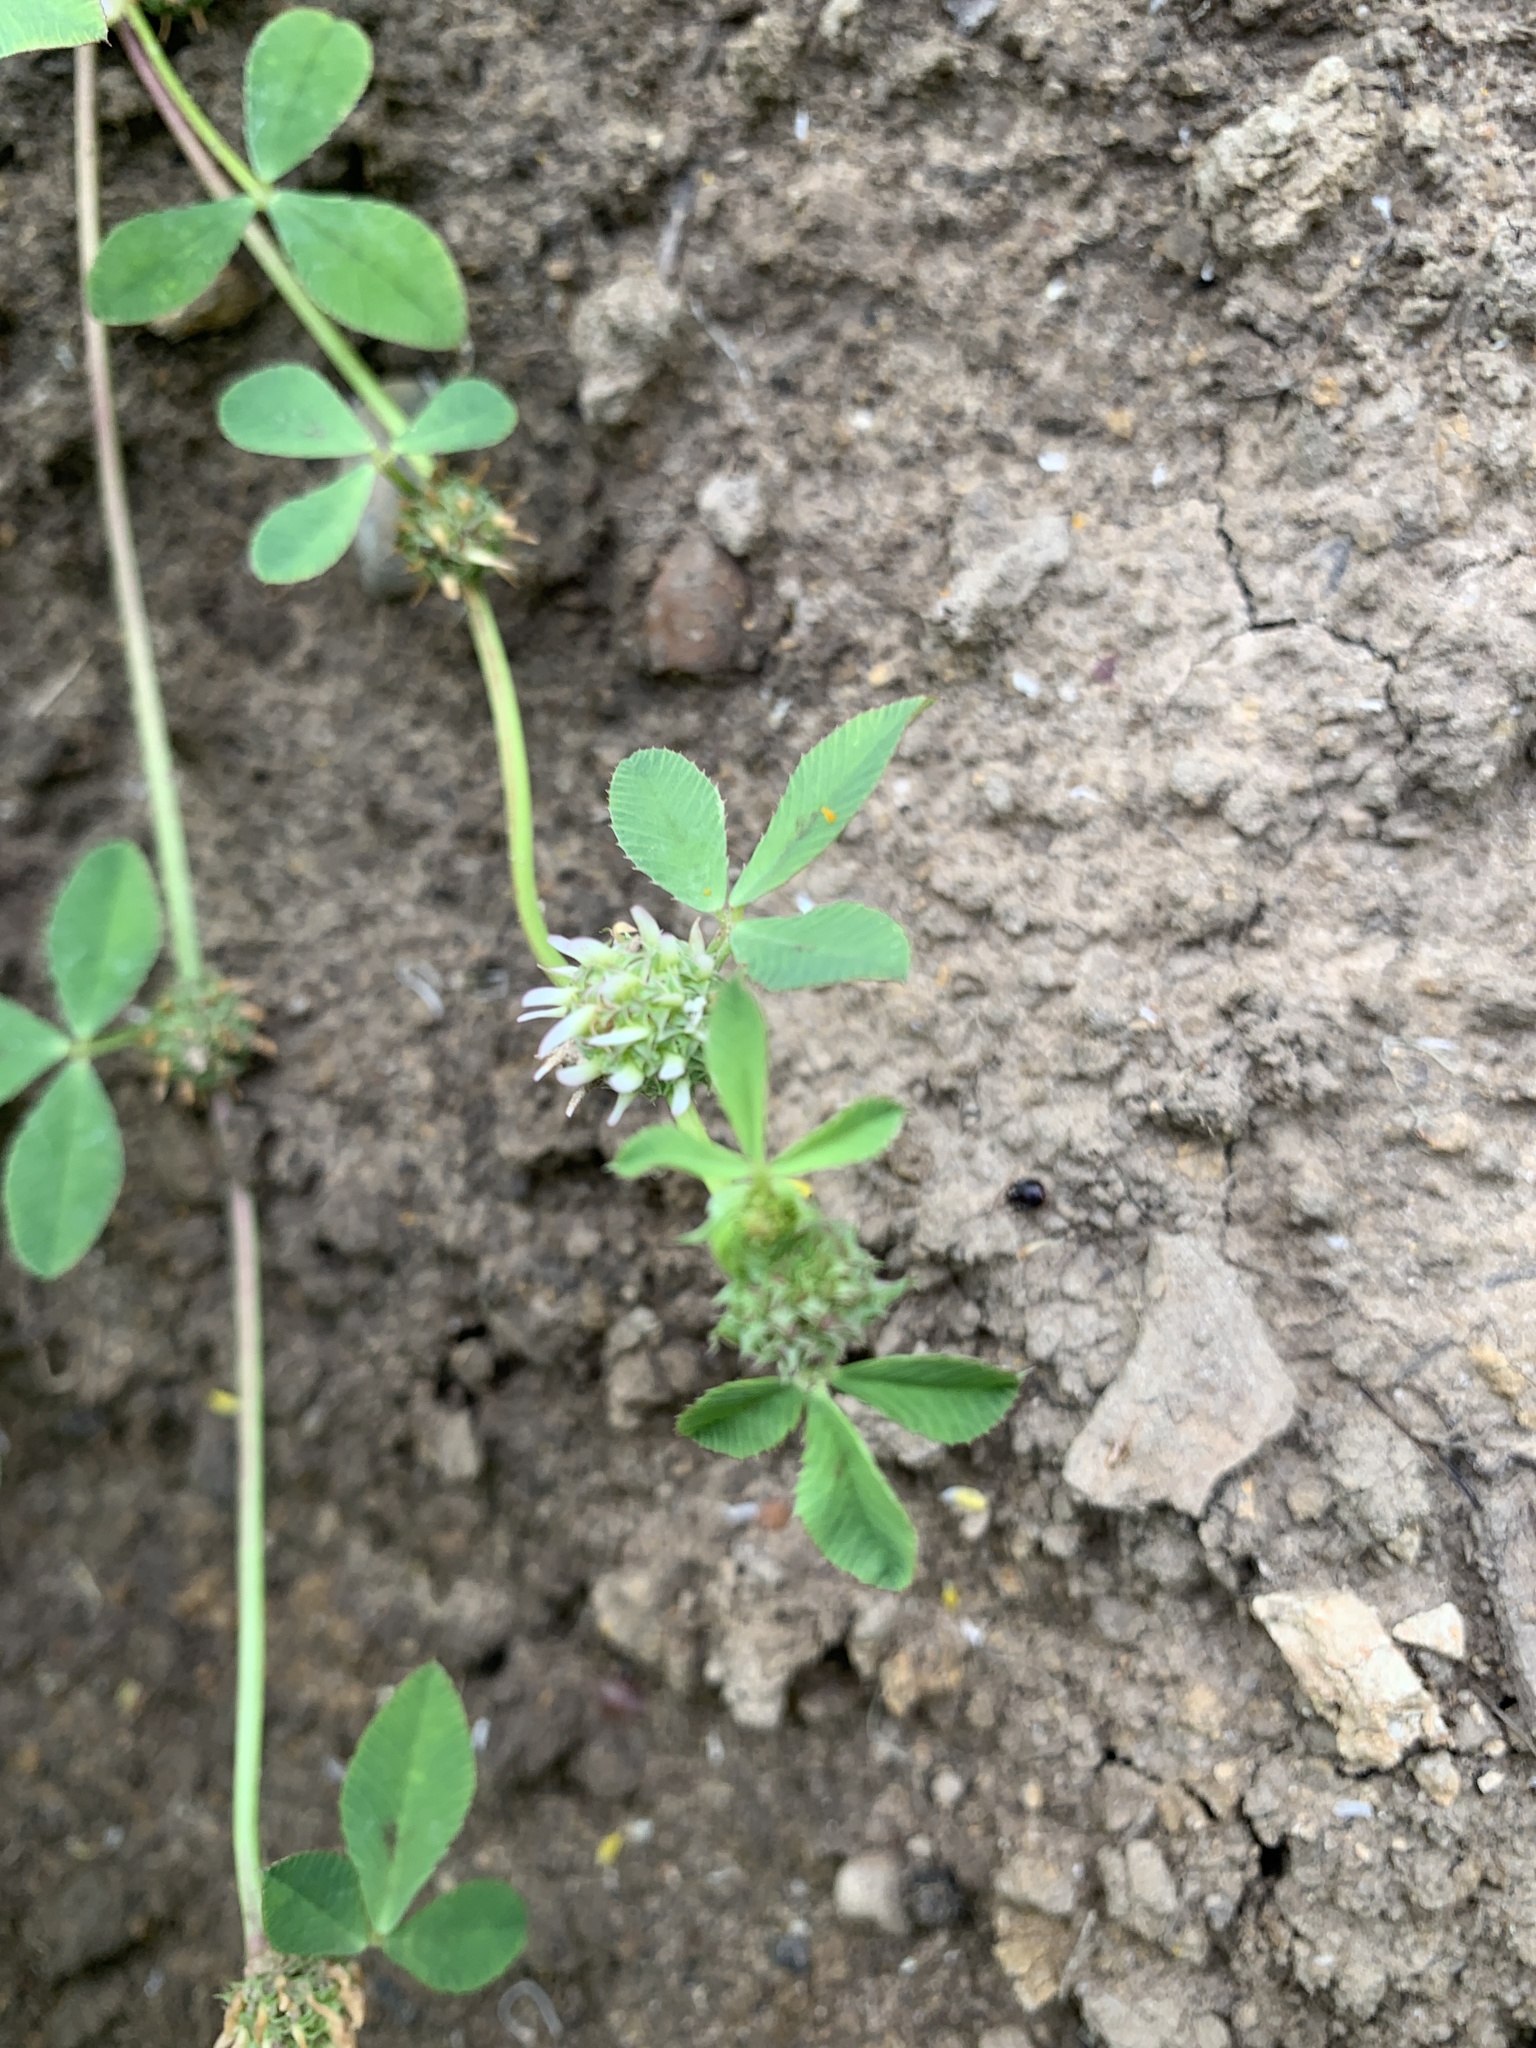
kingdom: Plantae
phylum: Tracheophyta
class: Magnoliopsida
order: Fabales
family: Fabaceae
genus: Trifolium
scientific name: Trifolium glomeratum
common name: Clustered clover
